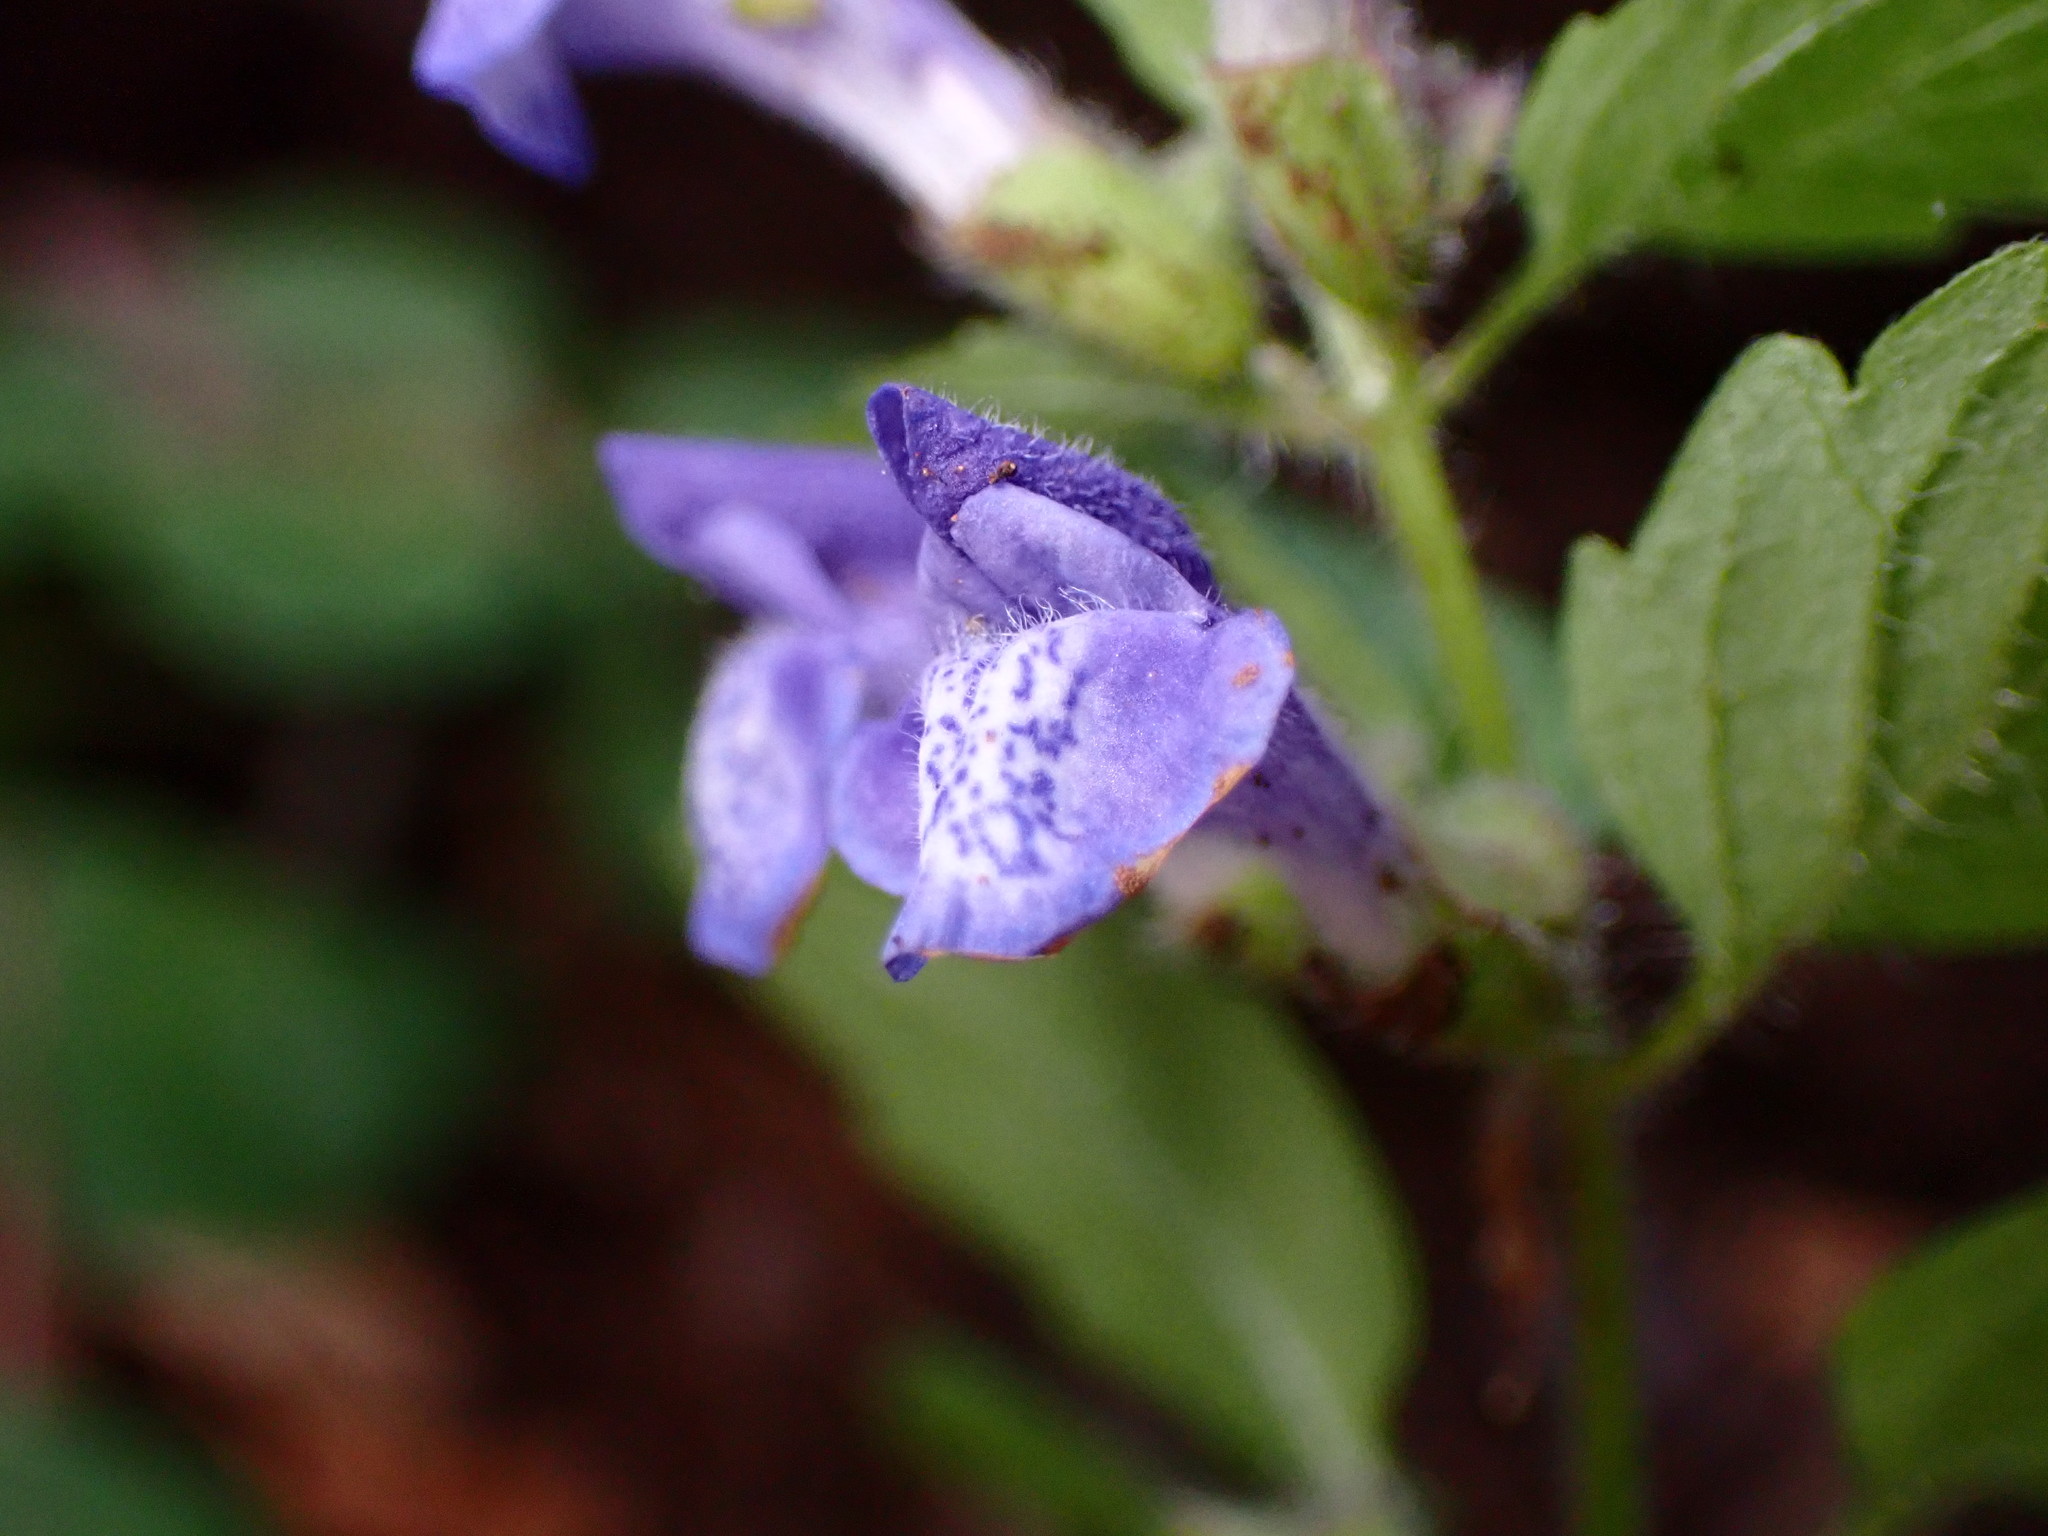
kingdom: Plantae
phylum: Tracheophyta
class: Magnoliopsida
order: Lamiales
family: Lamiaceae
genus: Scutellaria
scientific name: Scutellaria tuberosa
